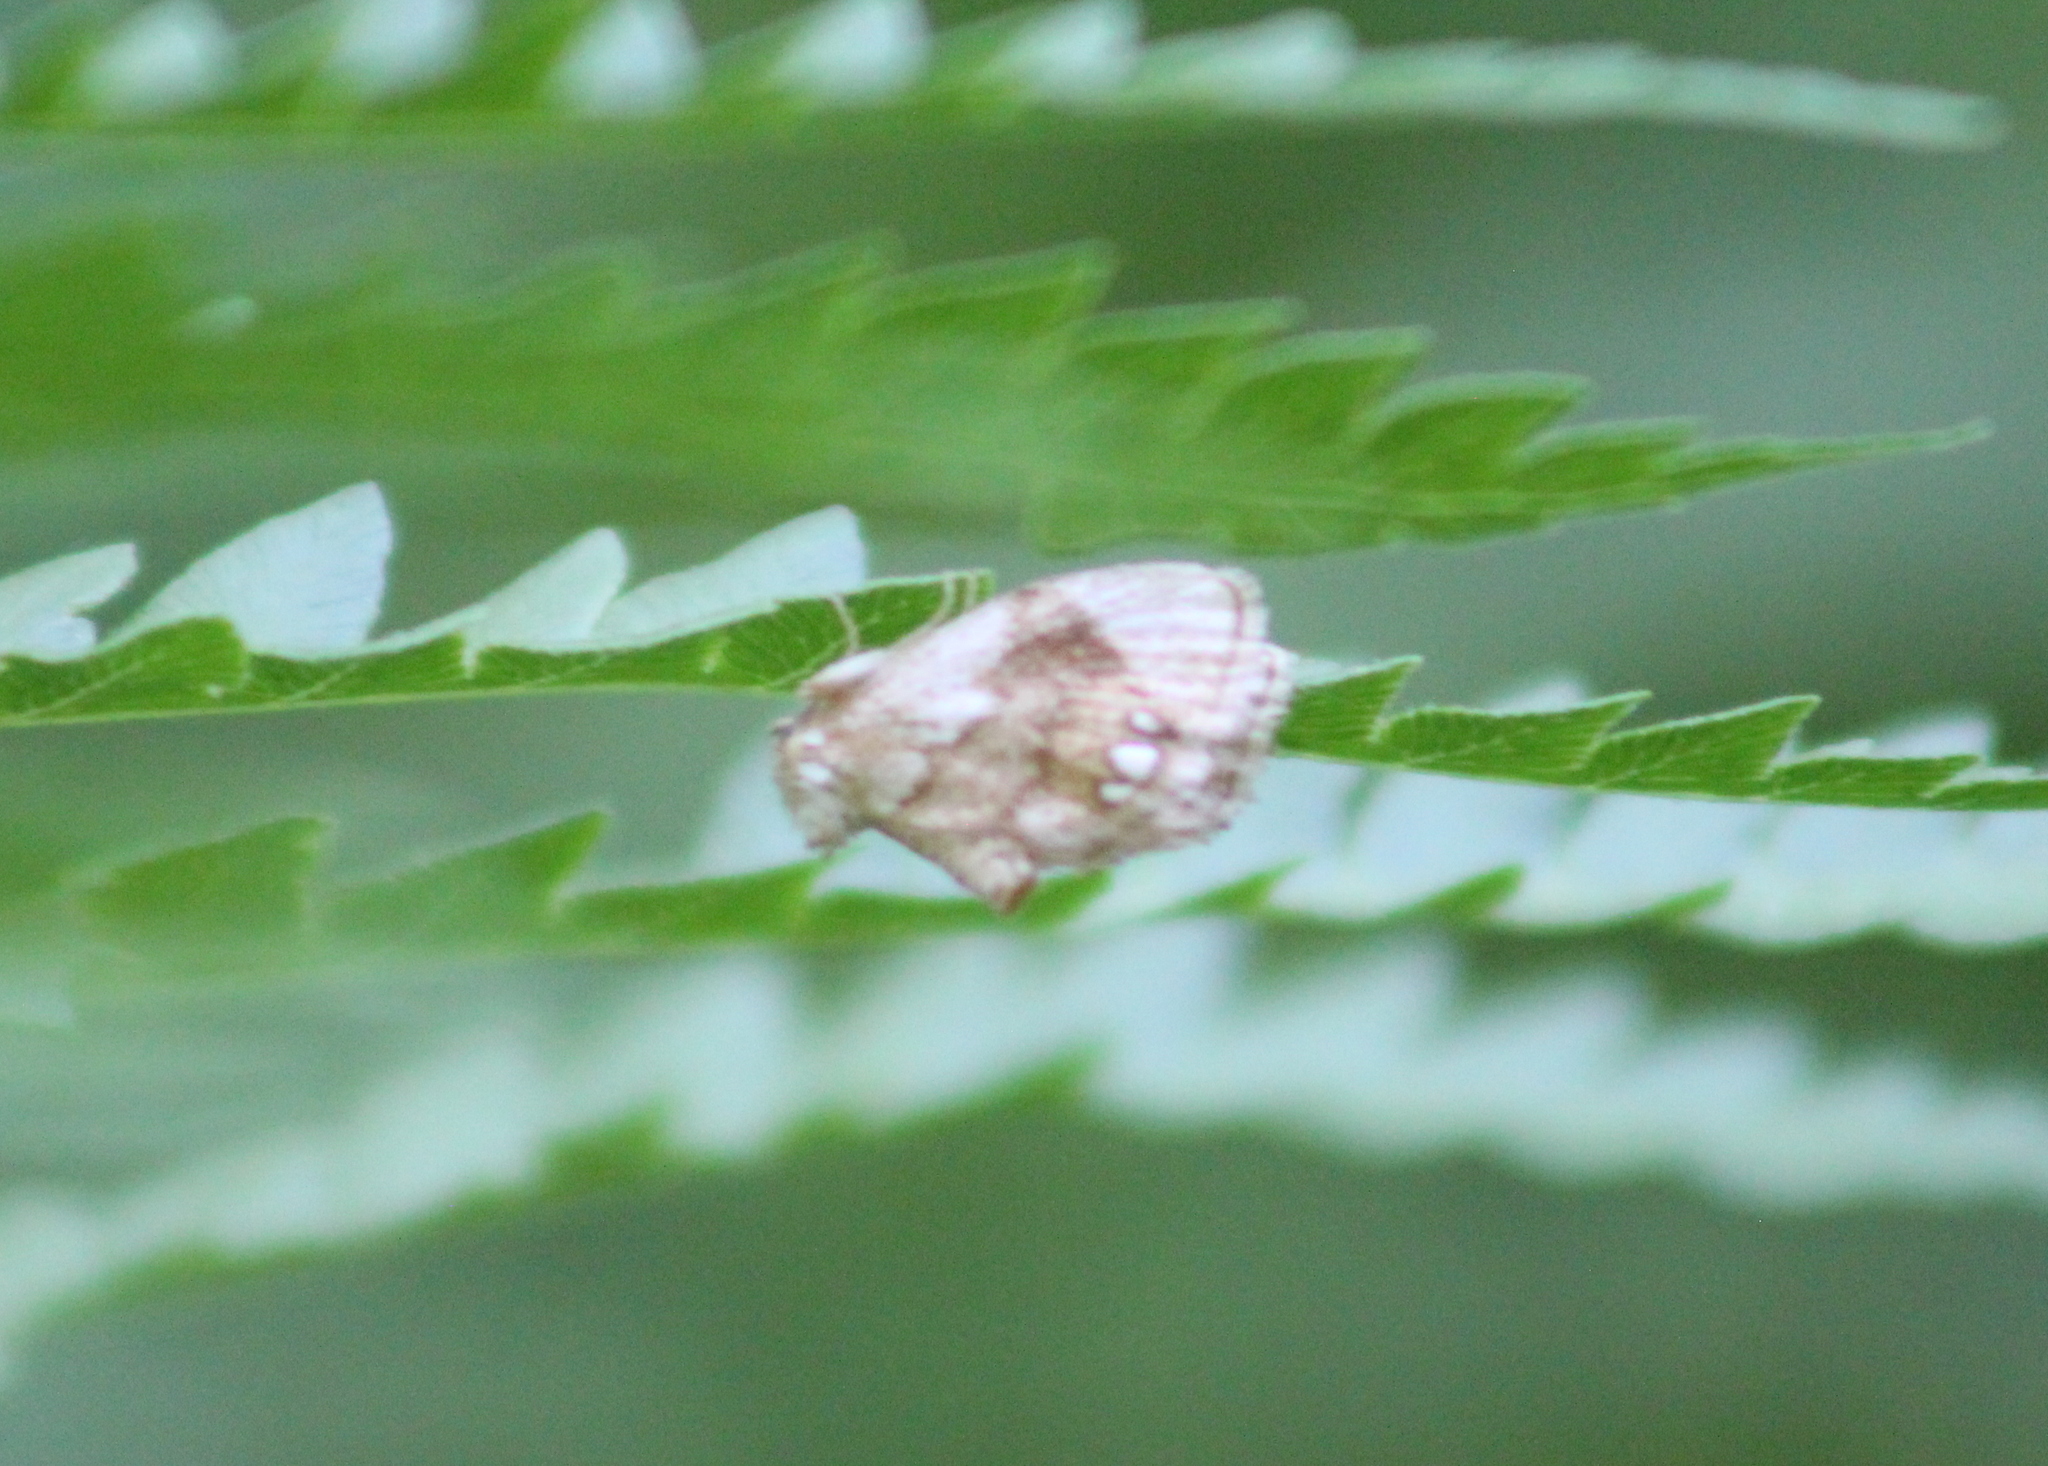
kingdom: Animalia
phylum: Arthropoda
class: Insecta
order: Lepidoptera
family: Limacodidae
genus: Packardia
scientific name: Packardia geminata
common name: Jeweled tailed slug moth
